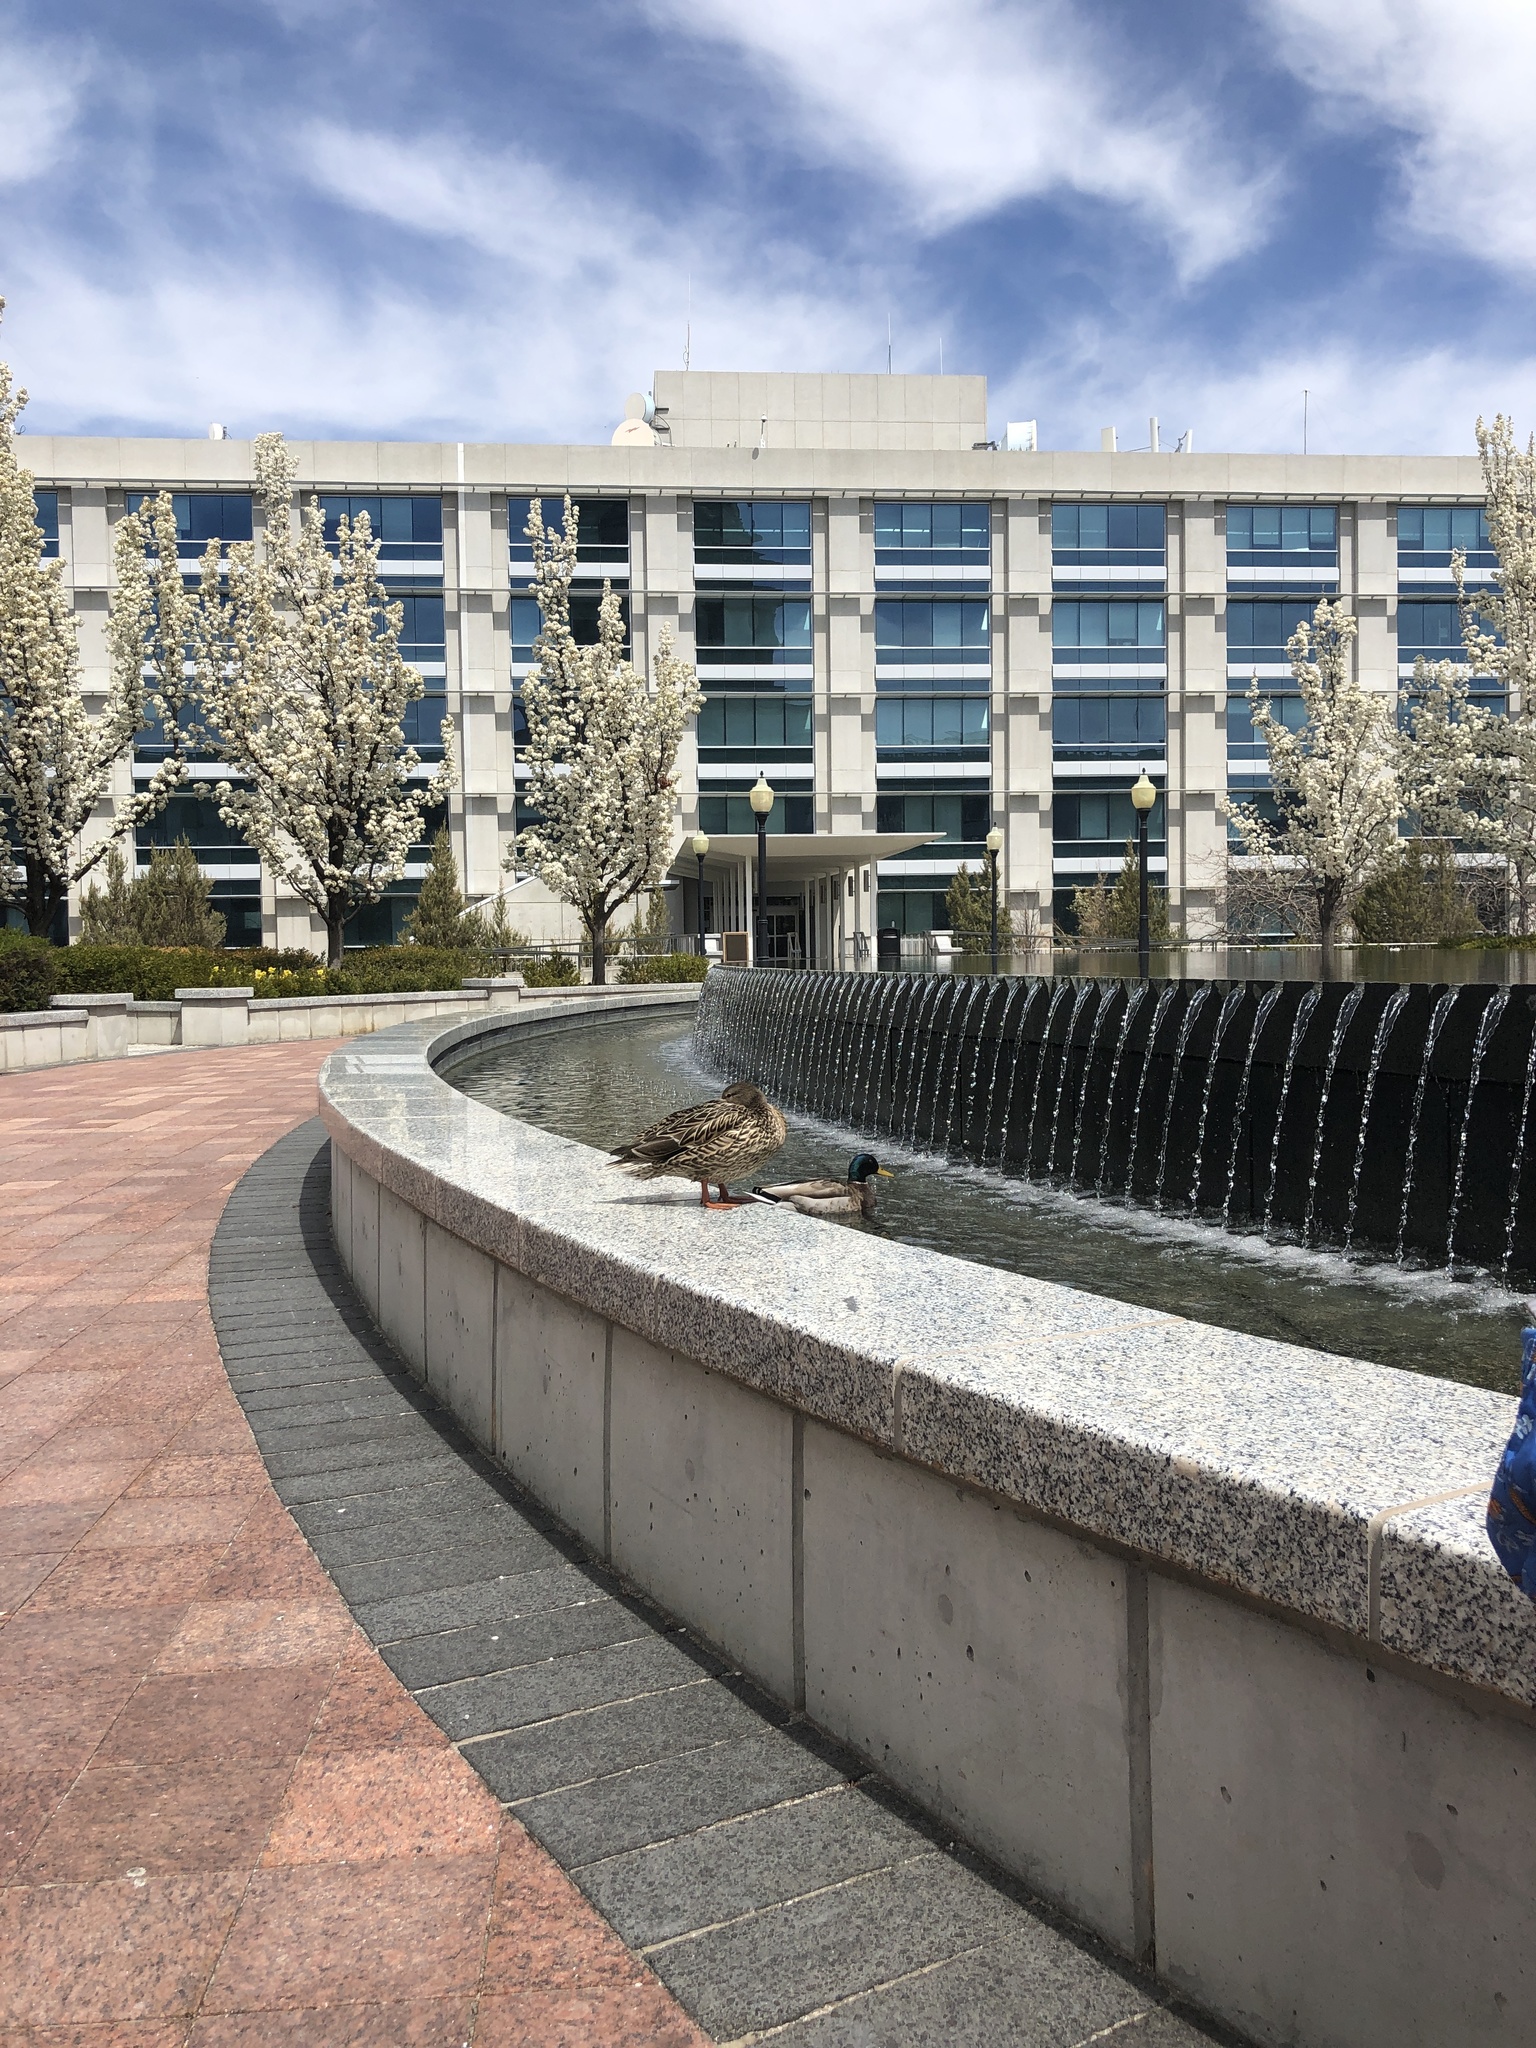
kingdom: Animalia
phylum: Chordata
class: Aves
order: Anseriformes
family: Anatidae
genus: Anas
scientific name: Anas platyrhynchos
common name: Mallard
